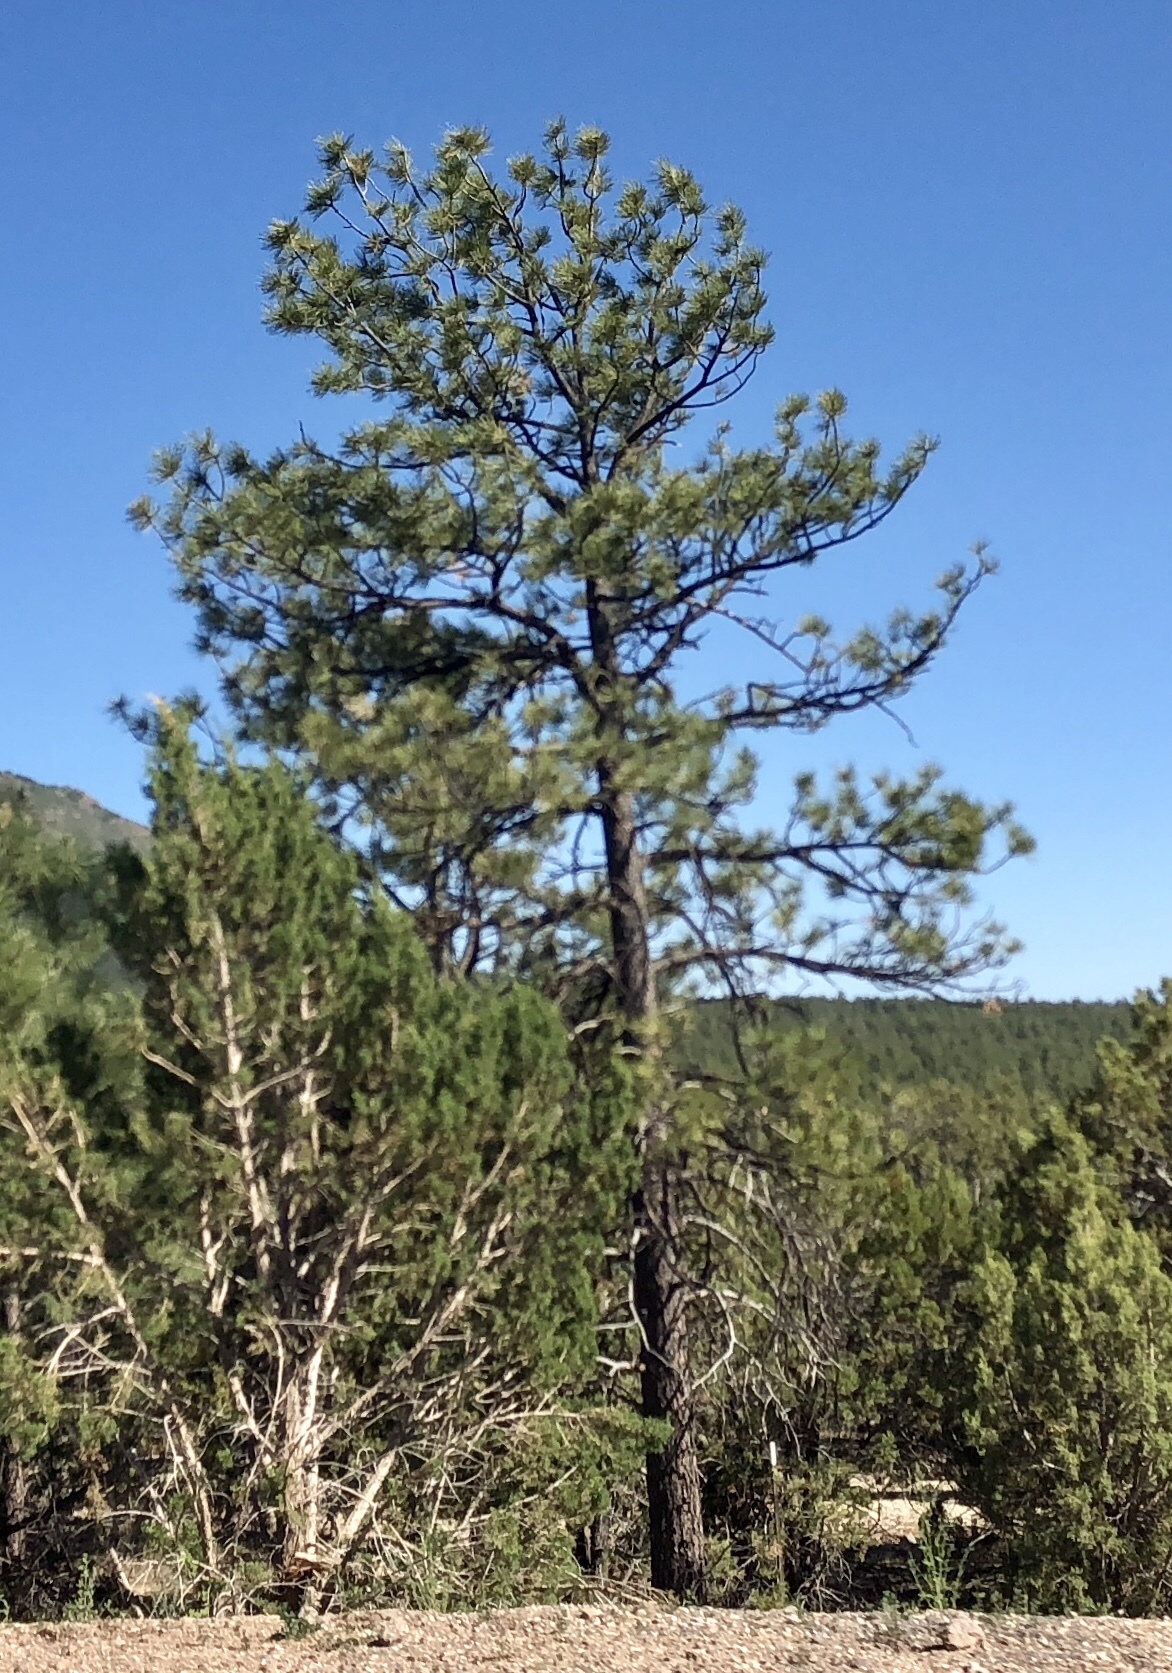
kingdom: Plantae
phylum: Tracheophyta
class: Pinopsida
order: Pinales
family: Pinaceae
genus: Pinus
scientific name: Pinus ponderosa
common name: Western yellow-pine
